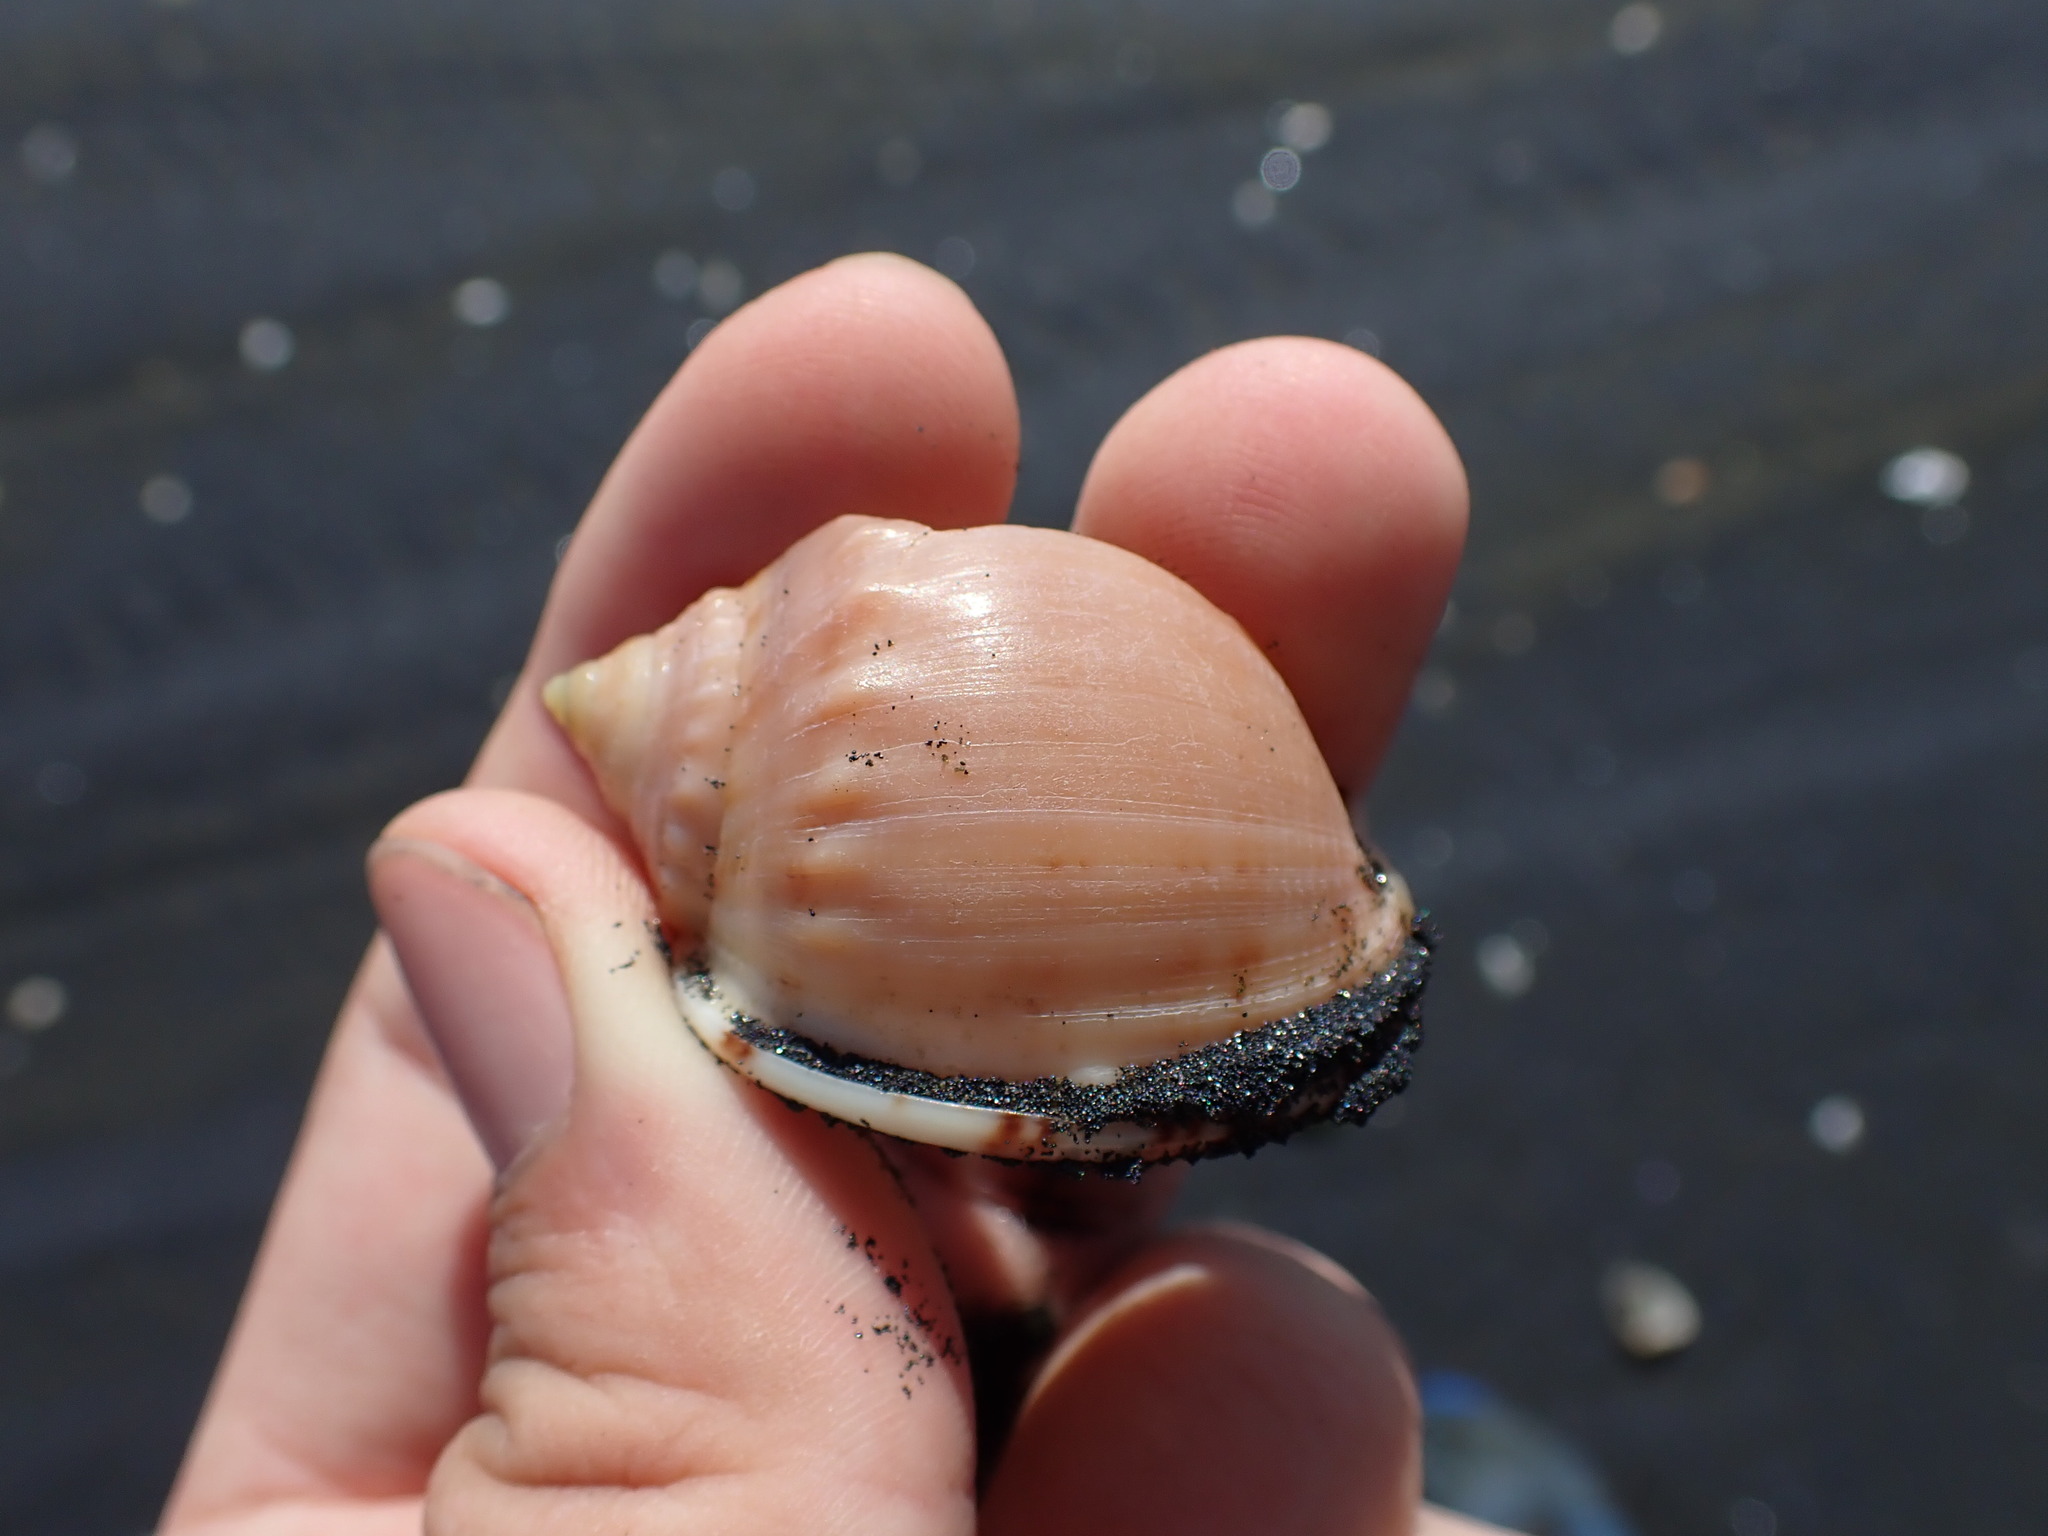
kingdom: Animalia
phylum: Mollusca
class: Gastropoda
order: Littorinimorpha
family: Cassidae
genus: Semicassis
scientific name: Semicassis pyrum
